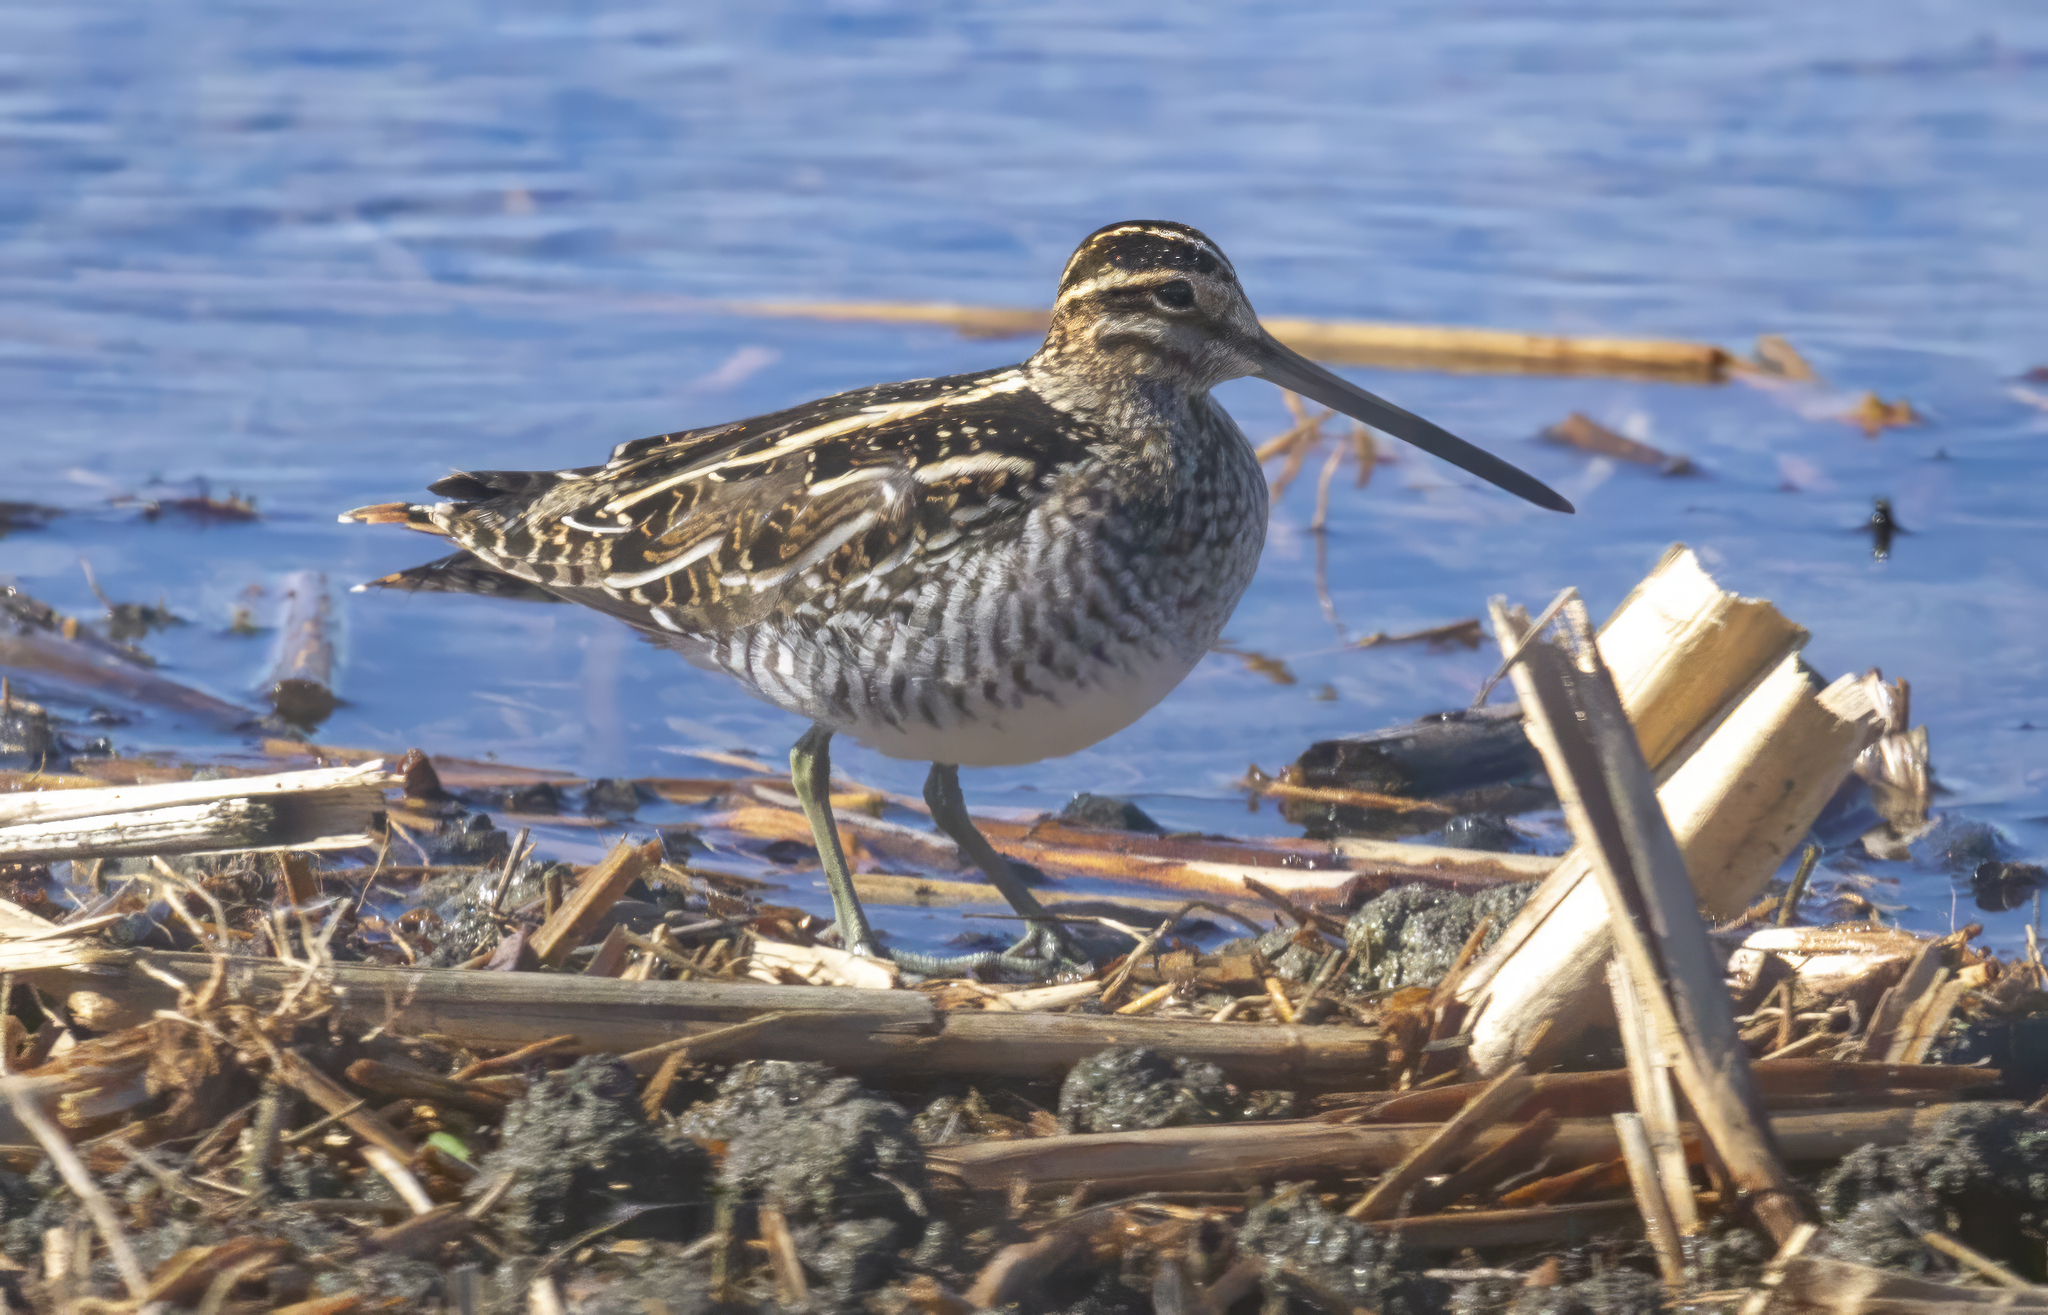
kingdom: Animalia
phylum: Chordata
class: Aves
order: Charadriiformes
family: Scolopacidae
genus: Gallinago
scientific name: Gallinago delicata
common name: Wilson's snipe
